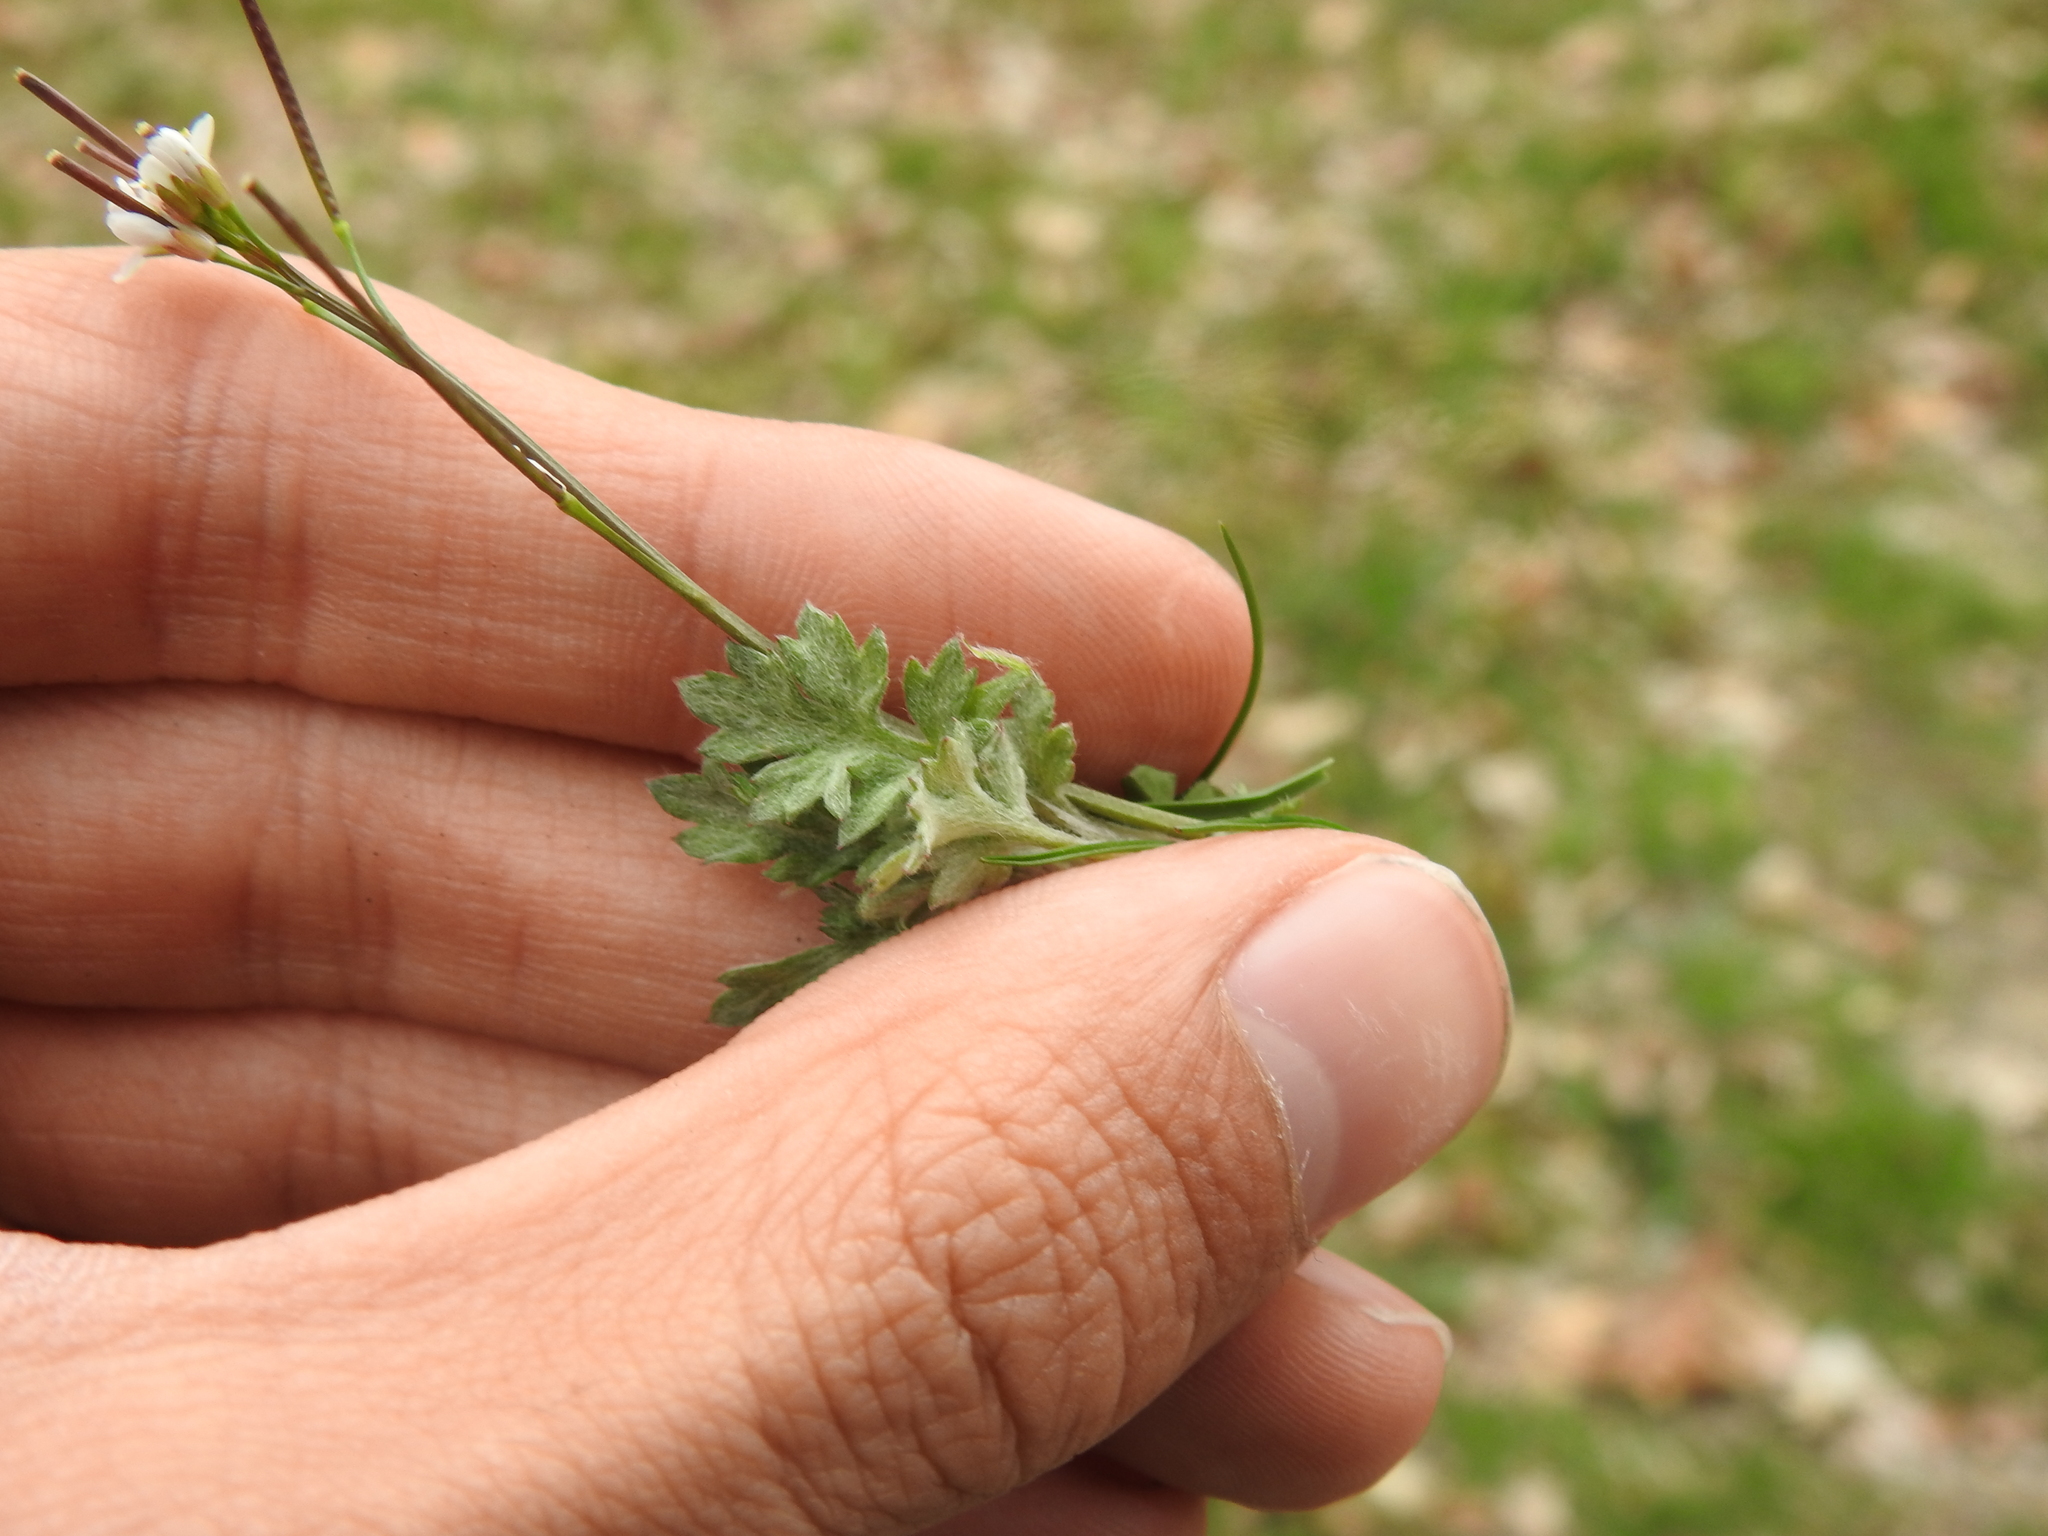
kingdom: Plantae
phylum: Tracheophyta
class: Magnoliopsida
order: Asterales
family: Asteraceae
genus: Artemisia
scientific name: Artemisia vulgaris
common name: Mugwort
